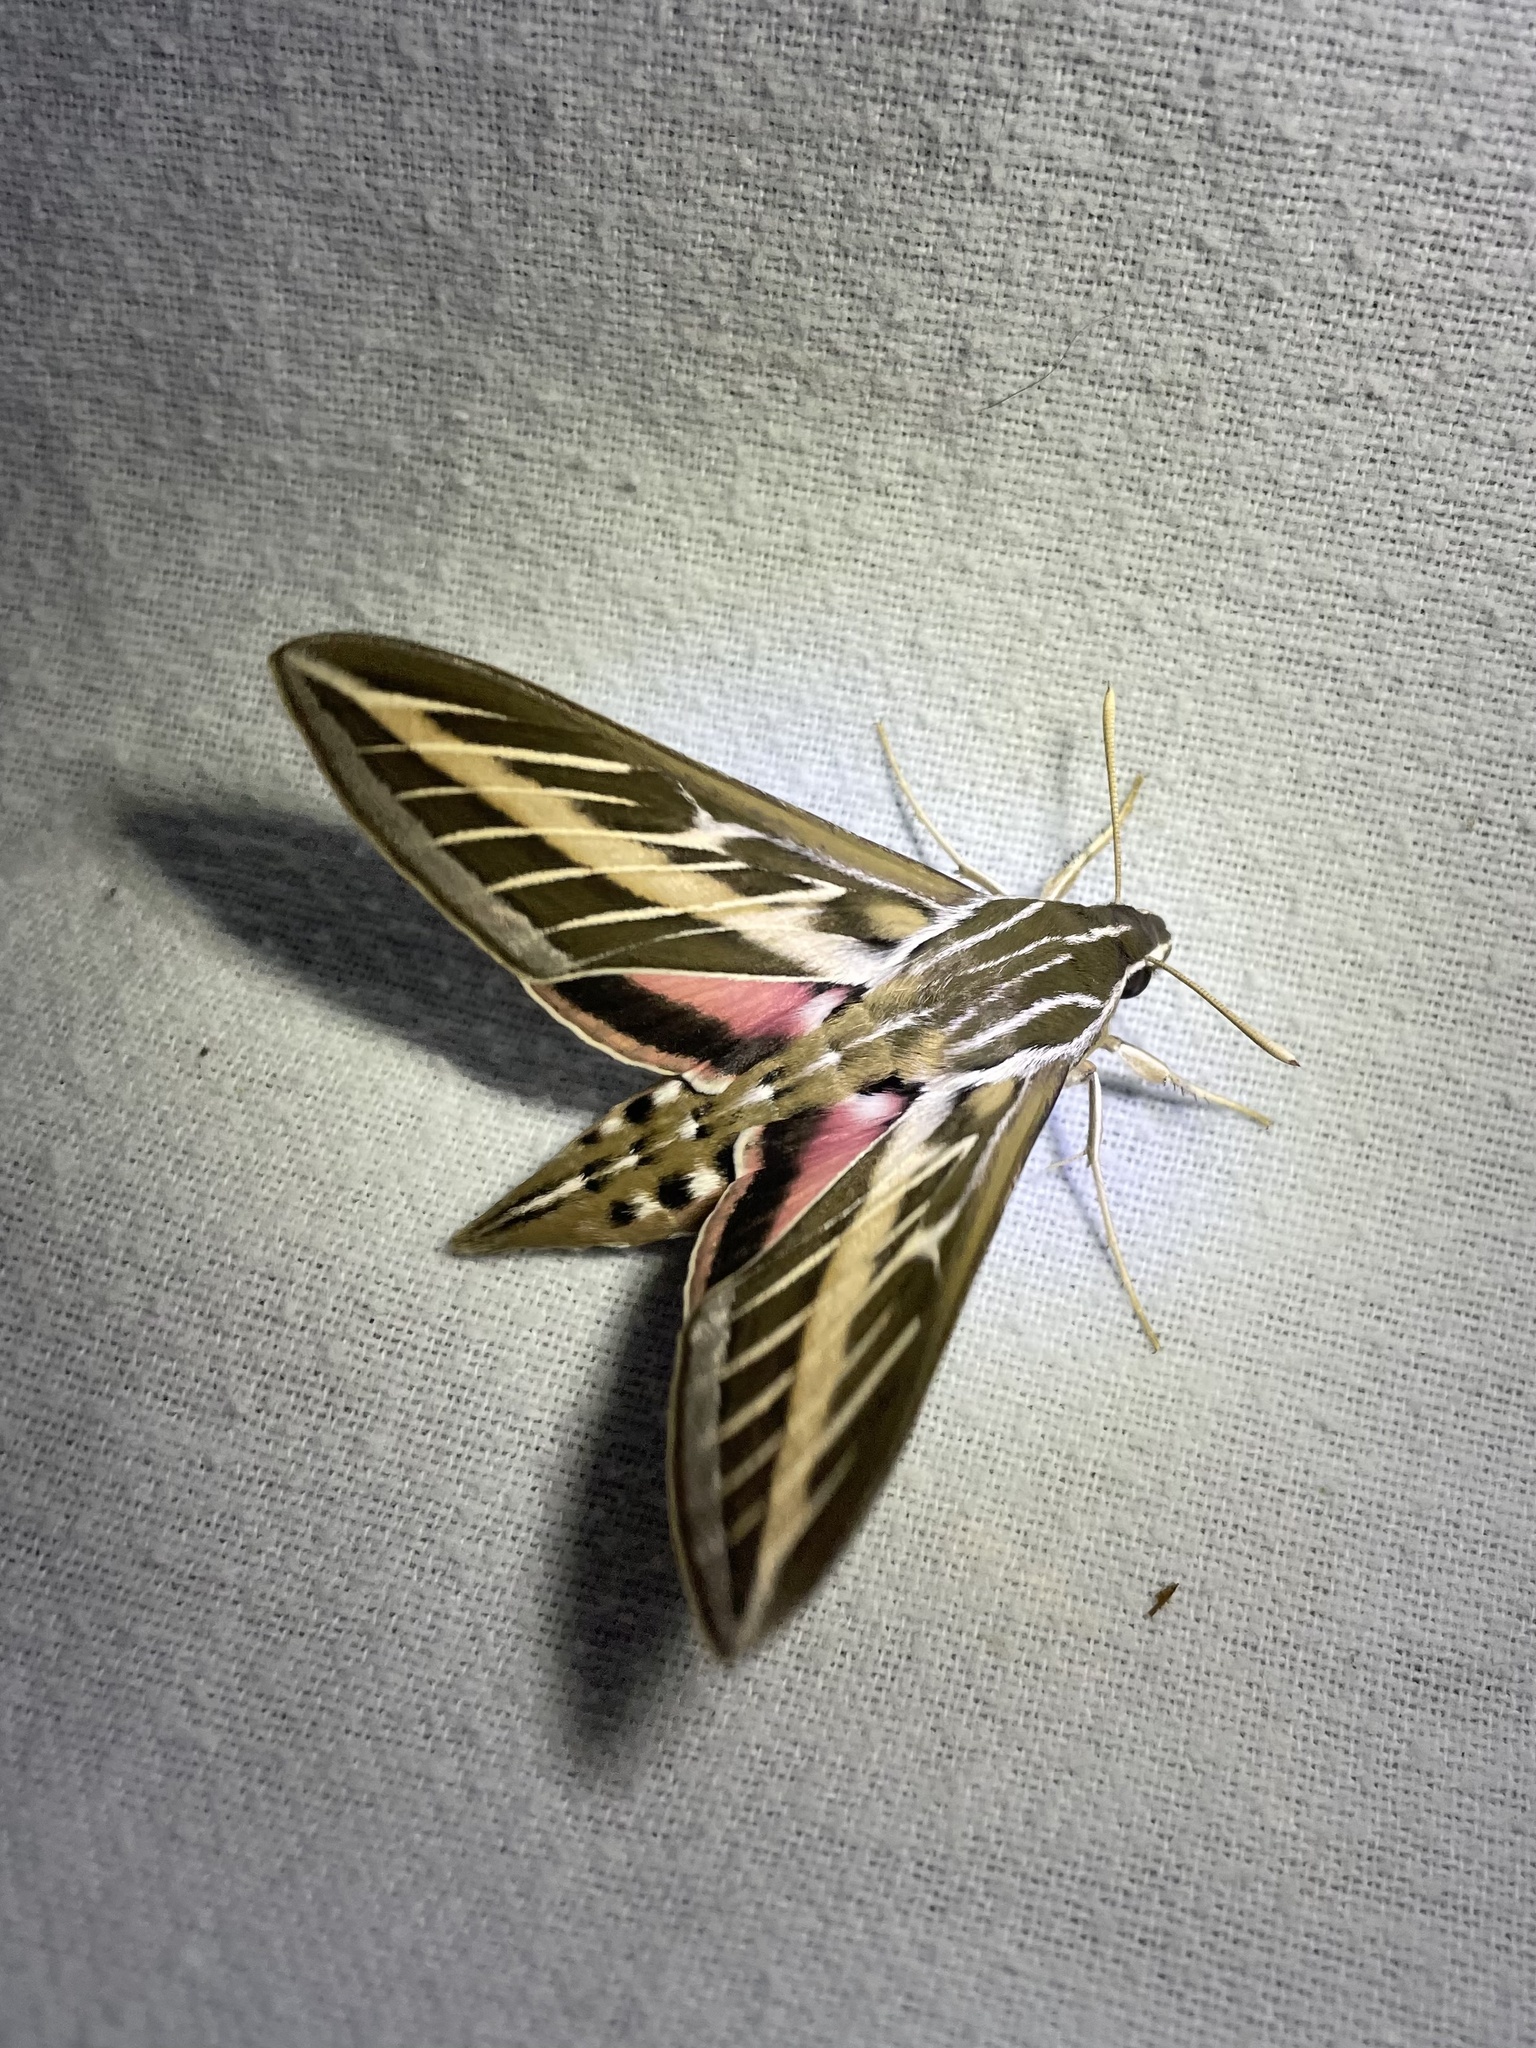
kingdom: Animalia
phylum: Arthropoda
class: Insecta
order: Lepidoptera
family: Sphingidae
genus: Hyles
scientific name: Hyles lineata
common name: White-lined sphinx
